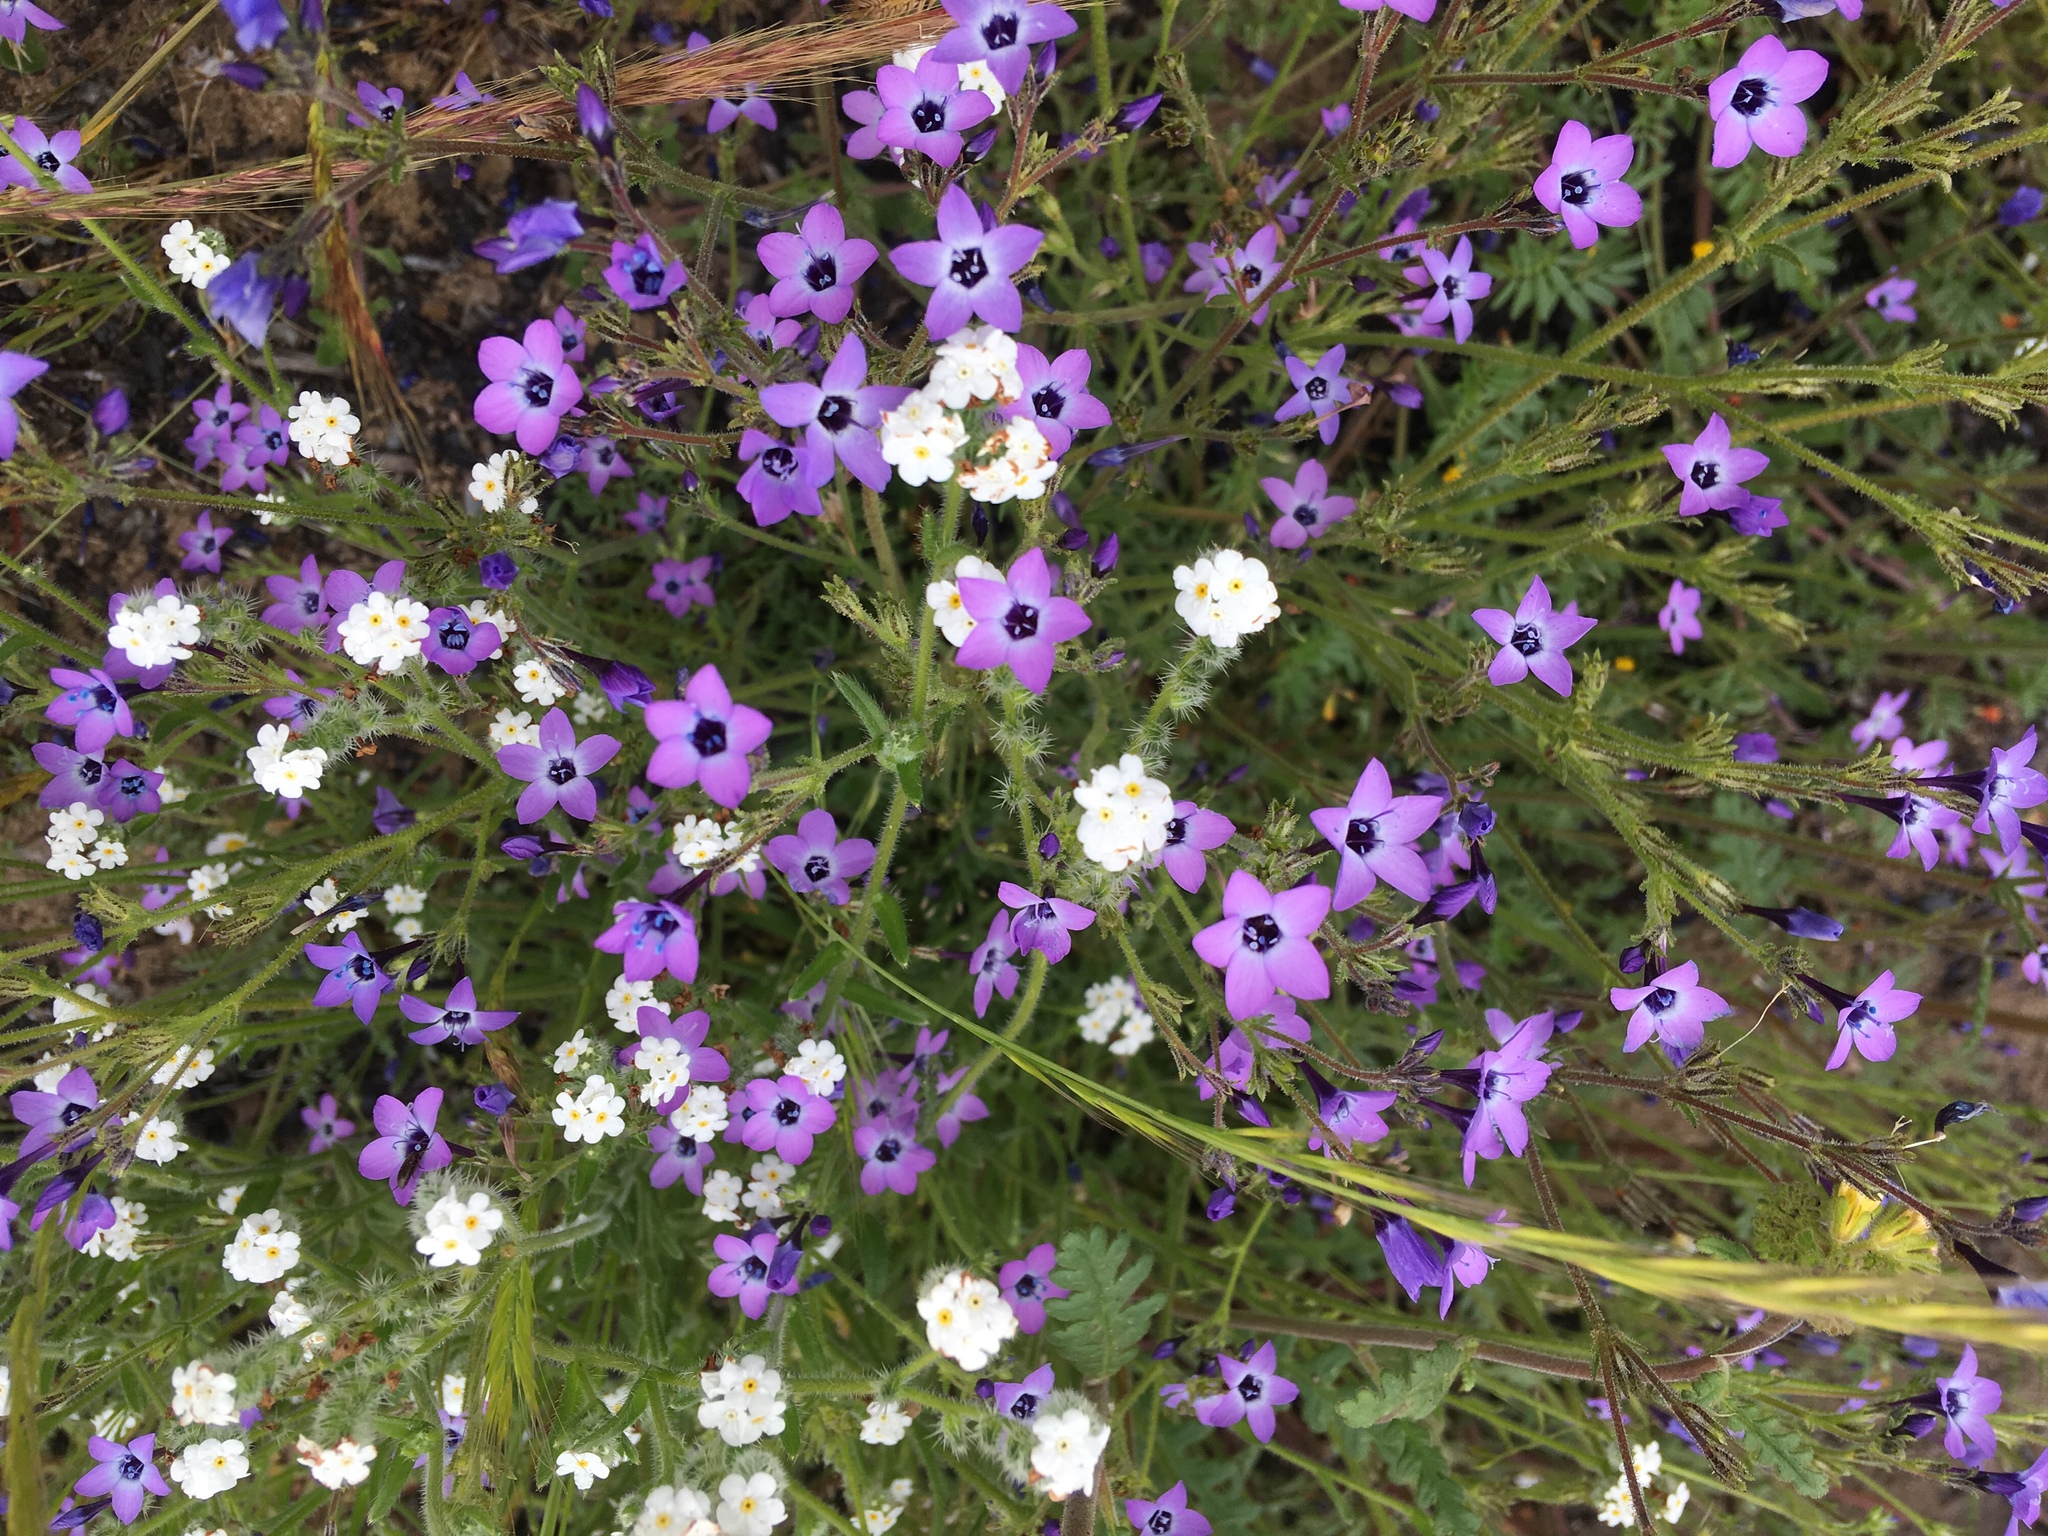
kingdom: Plantae
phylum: Tracheophyta
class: Magnoliopsida
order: Ericales
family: Polemoniaceae
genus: Gilia
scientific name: Gilia tenuiflora
